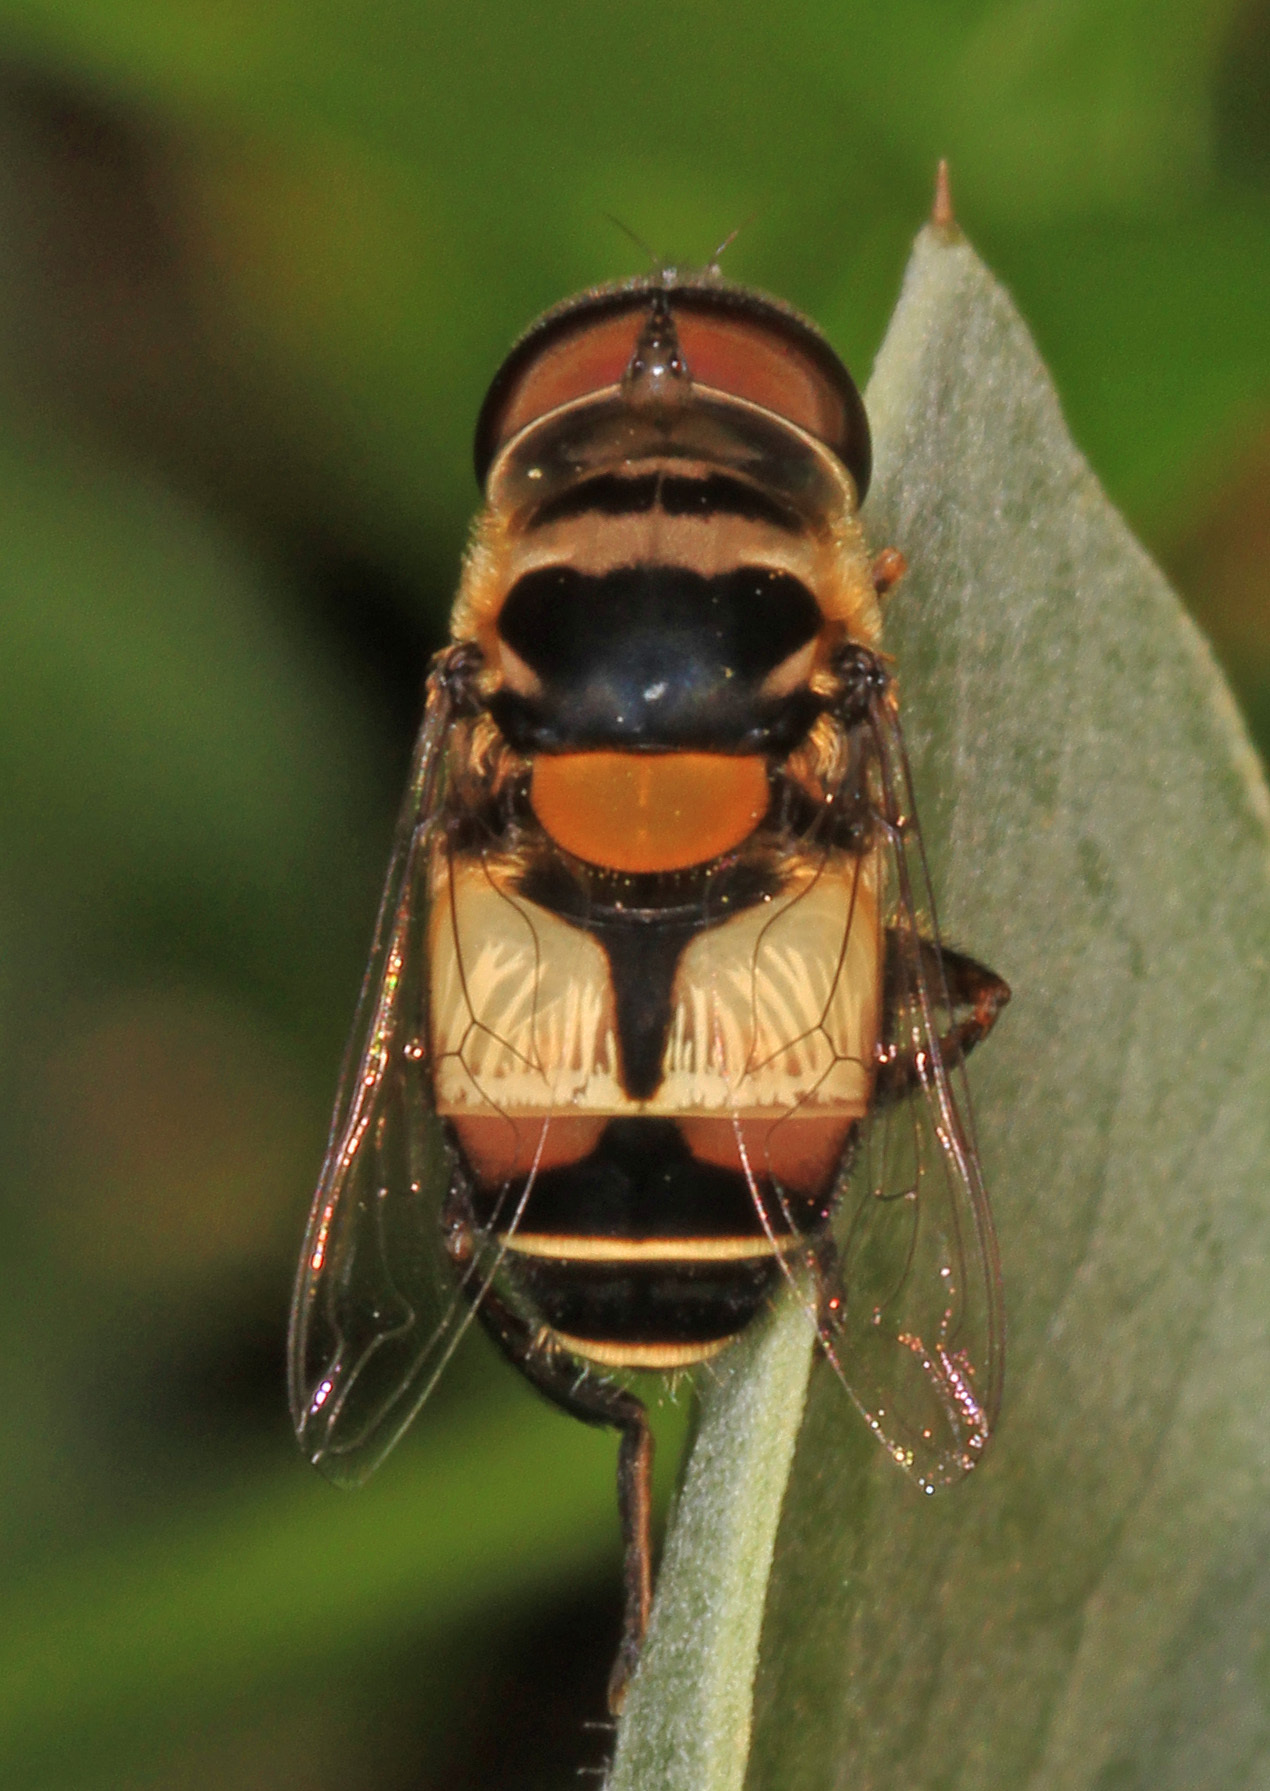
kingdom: Animalia
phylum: Arthropoda
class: Insecta
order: Diptera
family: Syrphidae
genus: Palpada
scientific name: Palpada albifrons
